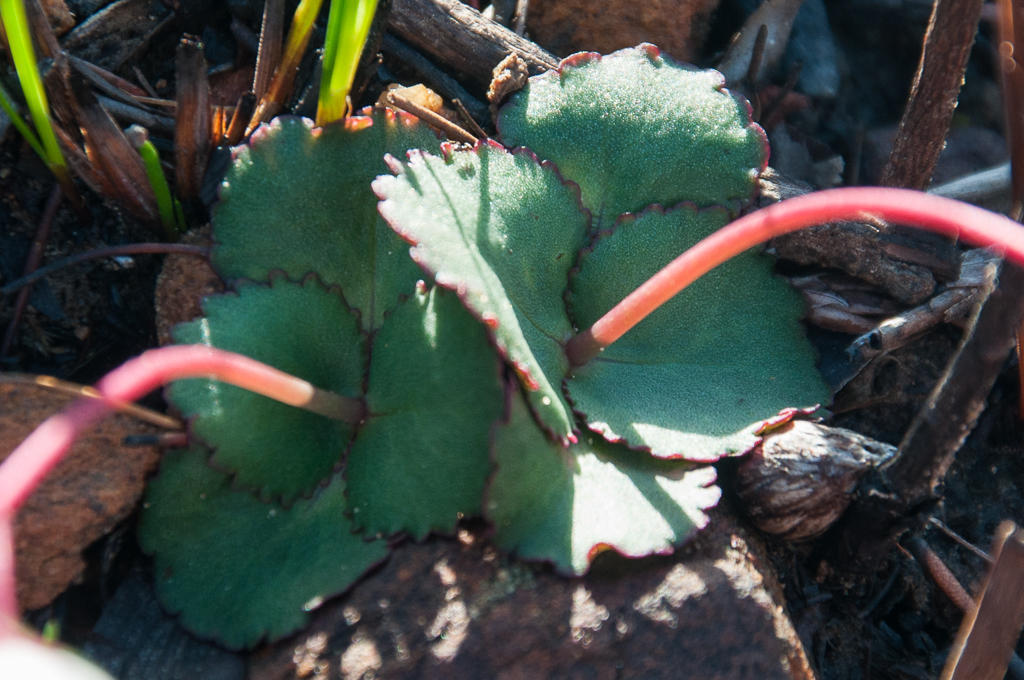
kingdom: Plantae
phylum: Tracheophyta
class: Magnoliopsida
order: Saxifragales
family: Crassulaceae
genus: Crassula
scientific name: Crassula capensis
